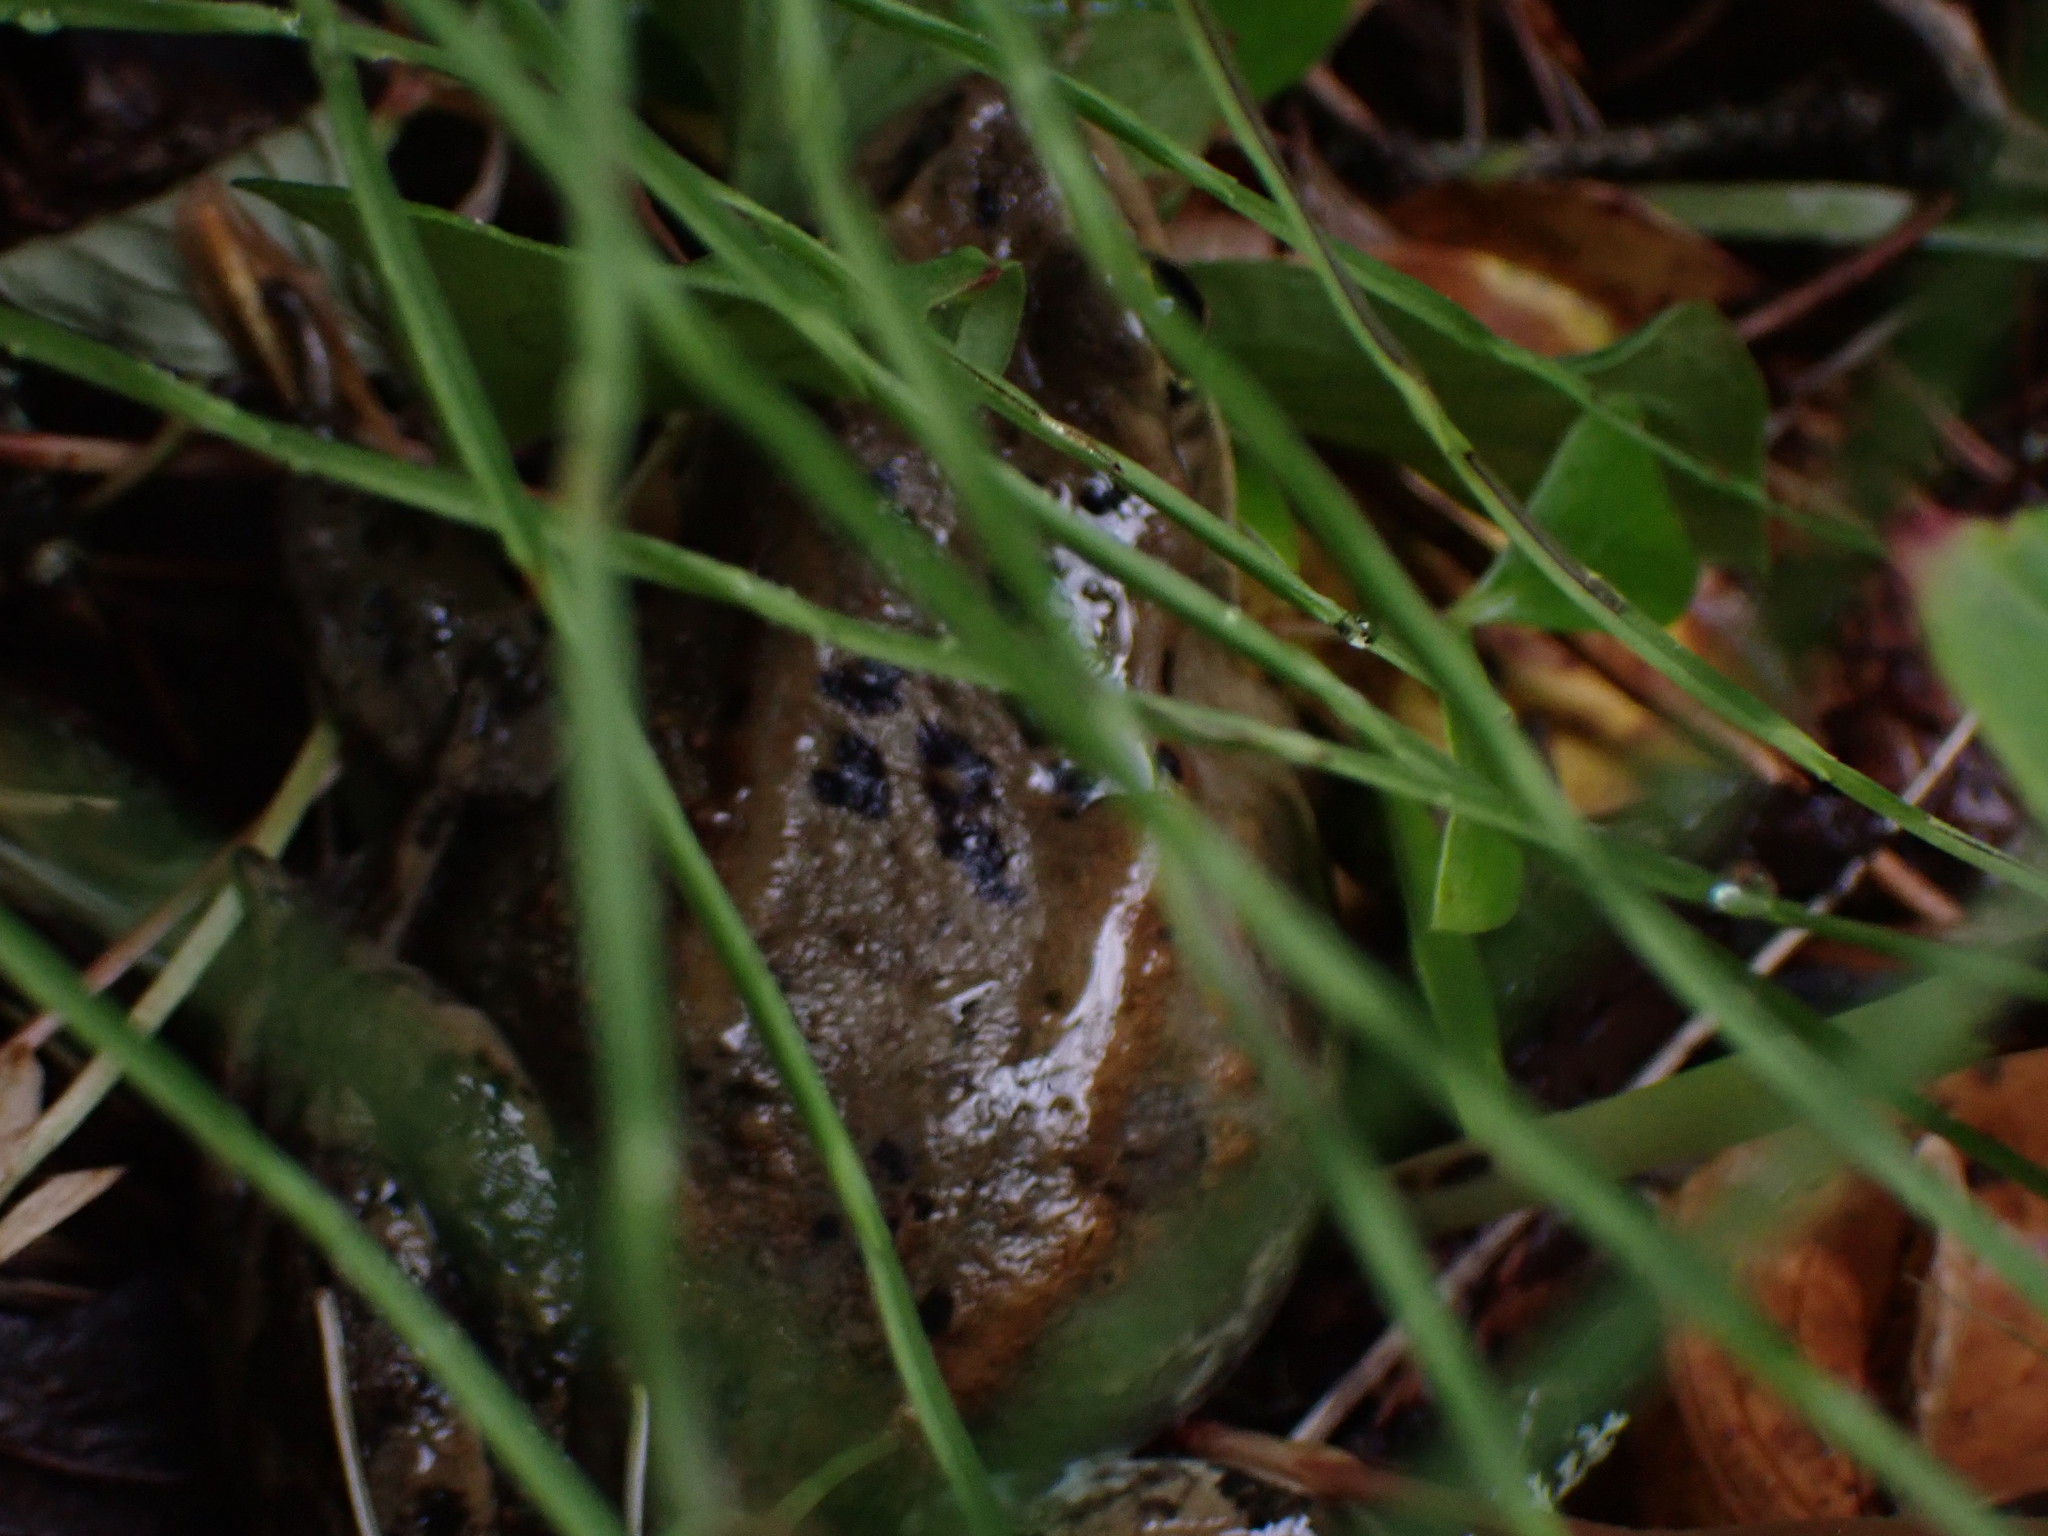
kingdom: Animalia
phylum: Chordata
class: Amphibia
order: Anura
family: Ranidae
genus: Rana
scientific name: Rana luteiventris
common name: Columbia spotted frog
